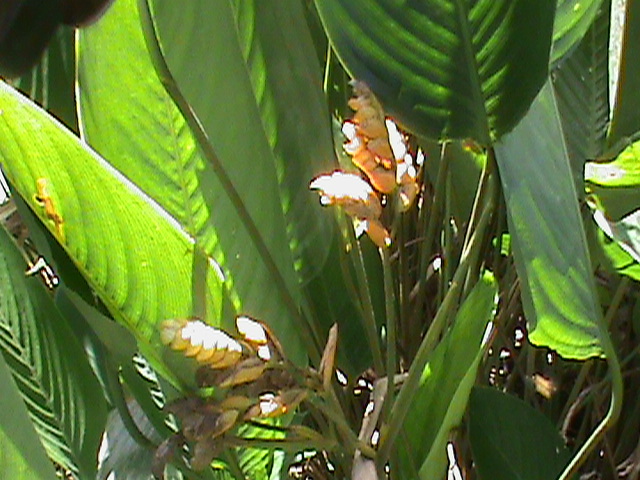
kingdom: Plantae
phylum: Tracheophyta
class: Liliopsida
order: Zingiberales
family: Marantaceae
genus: Stromanthe
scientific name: Stromanthe stromanthoides
